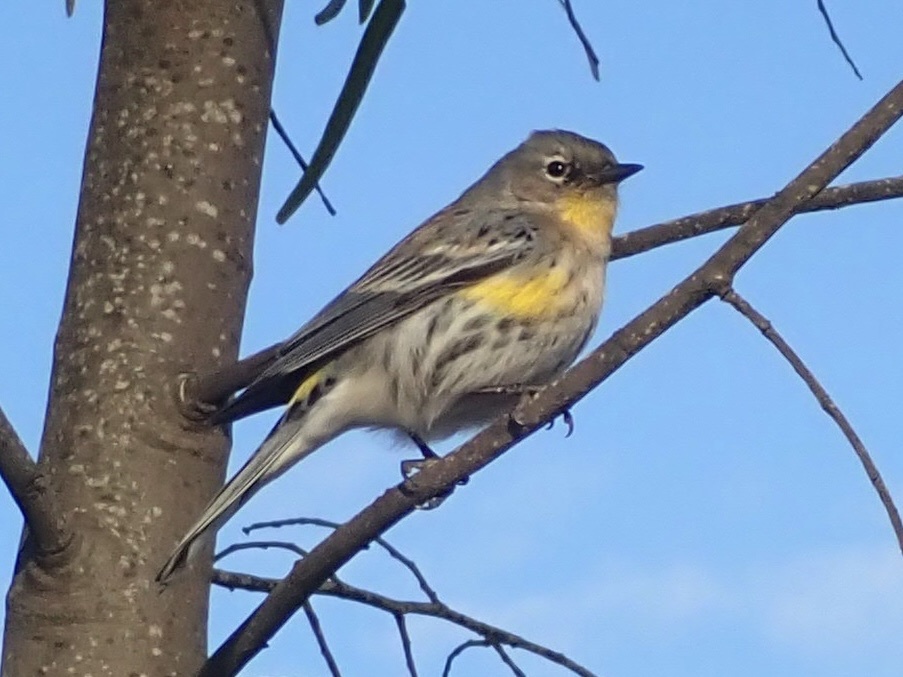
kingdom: Animalia
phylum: Chordata
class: Aves
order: Passeriformes
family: Parulidae
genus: Setophaga
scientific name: Setophaga coronata
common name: Myrtle warbler
